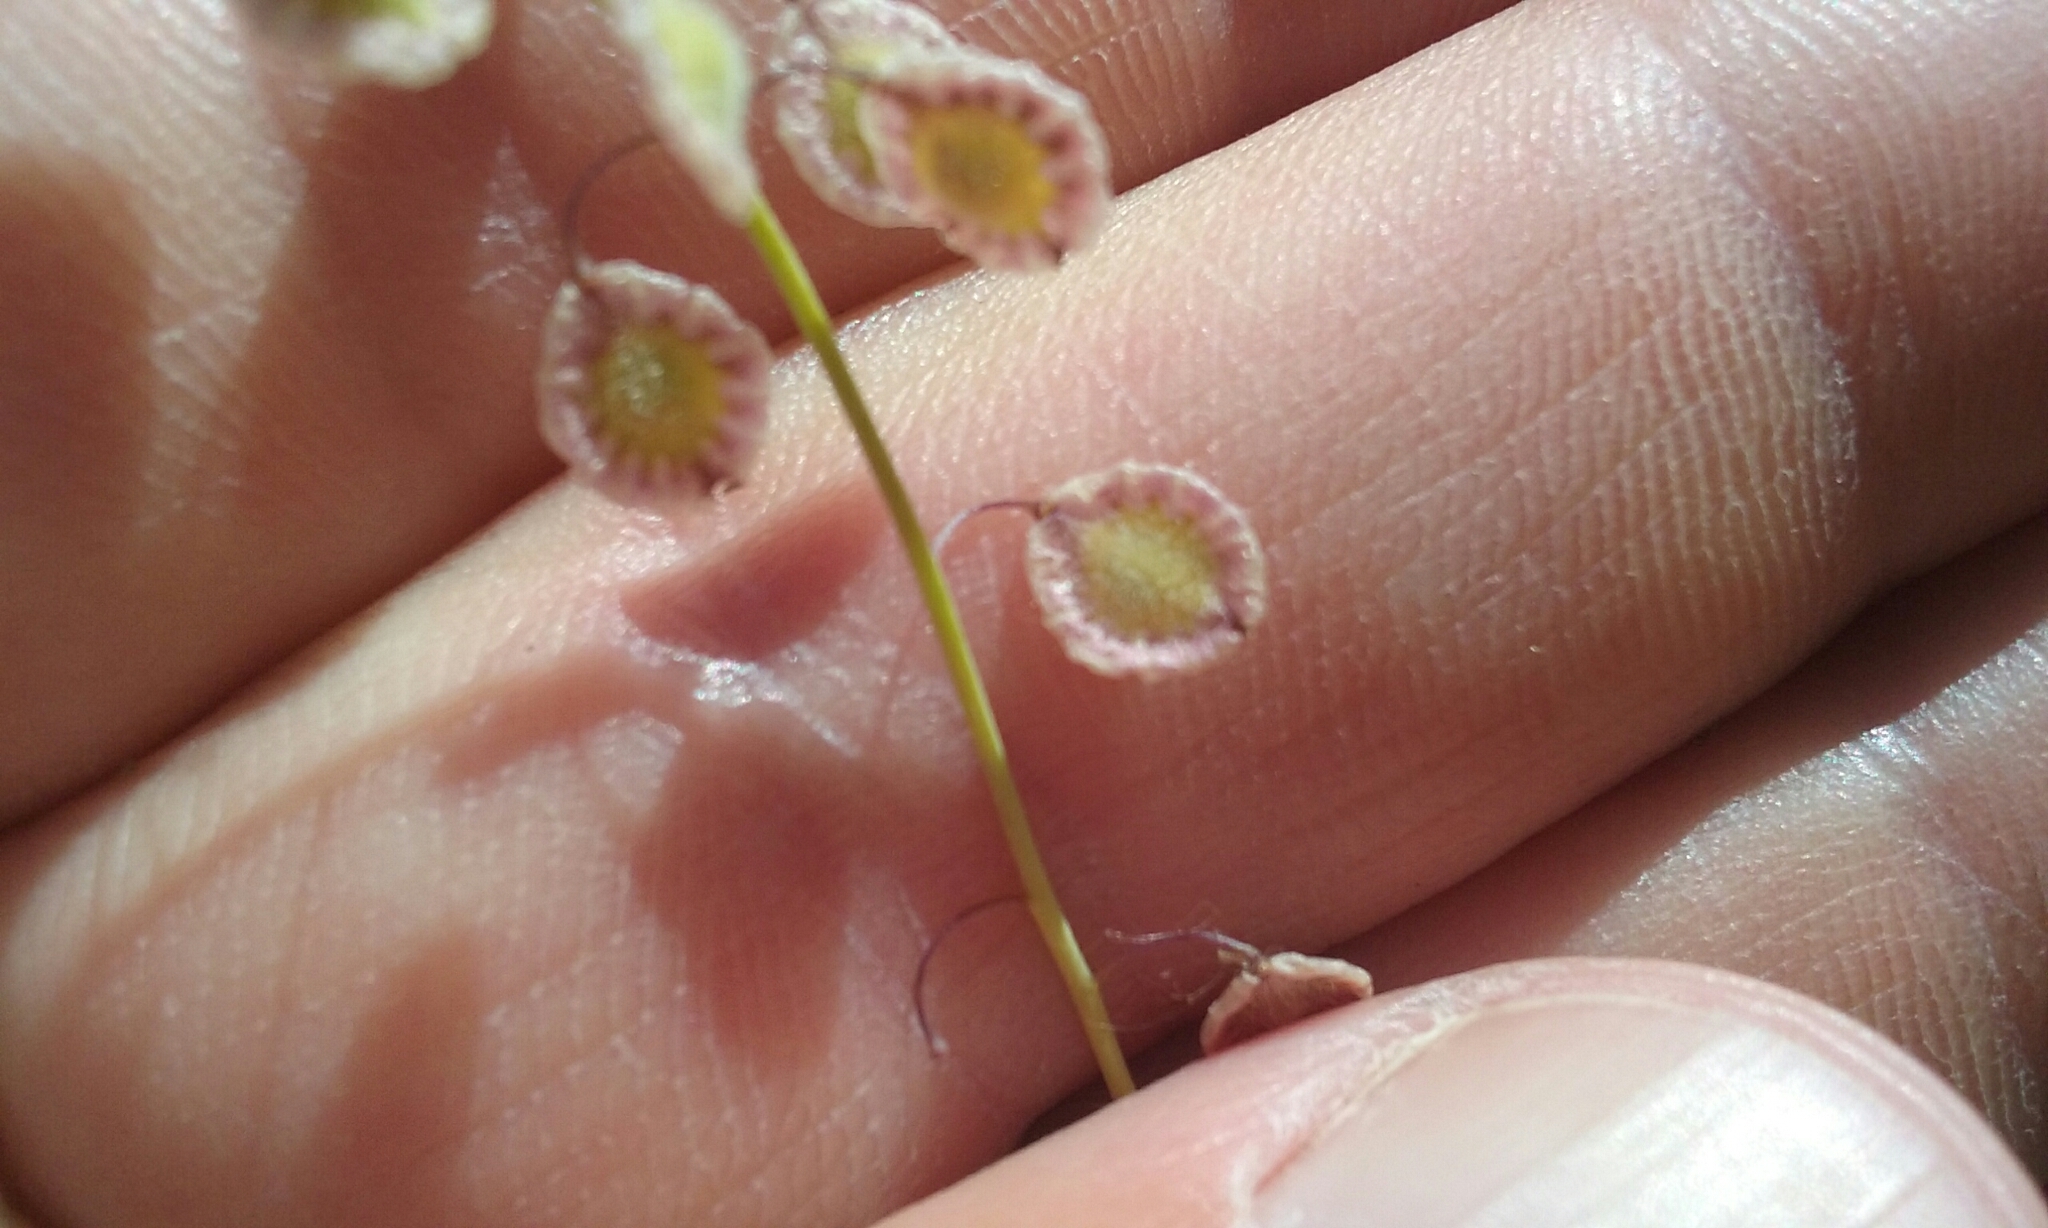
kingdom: Plantae
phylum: Tracheophyta
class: Magnoliopsida
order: Brassicales
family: Brassicaceae
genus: Thysanocarpus
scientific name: Thysanocarpus curvipes
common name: Sand fringepod
